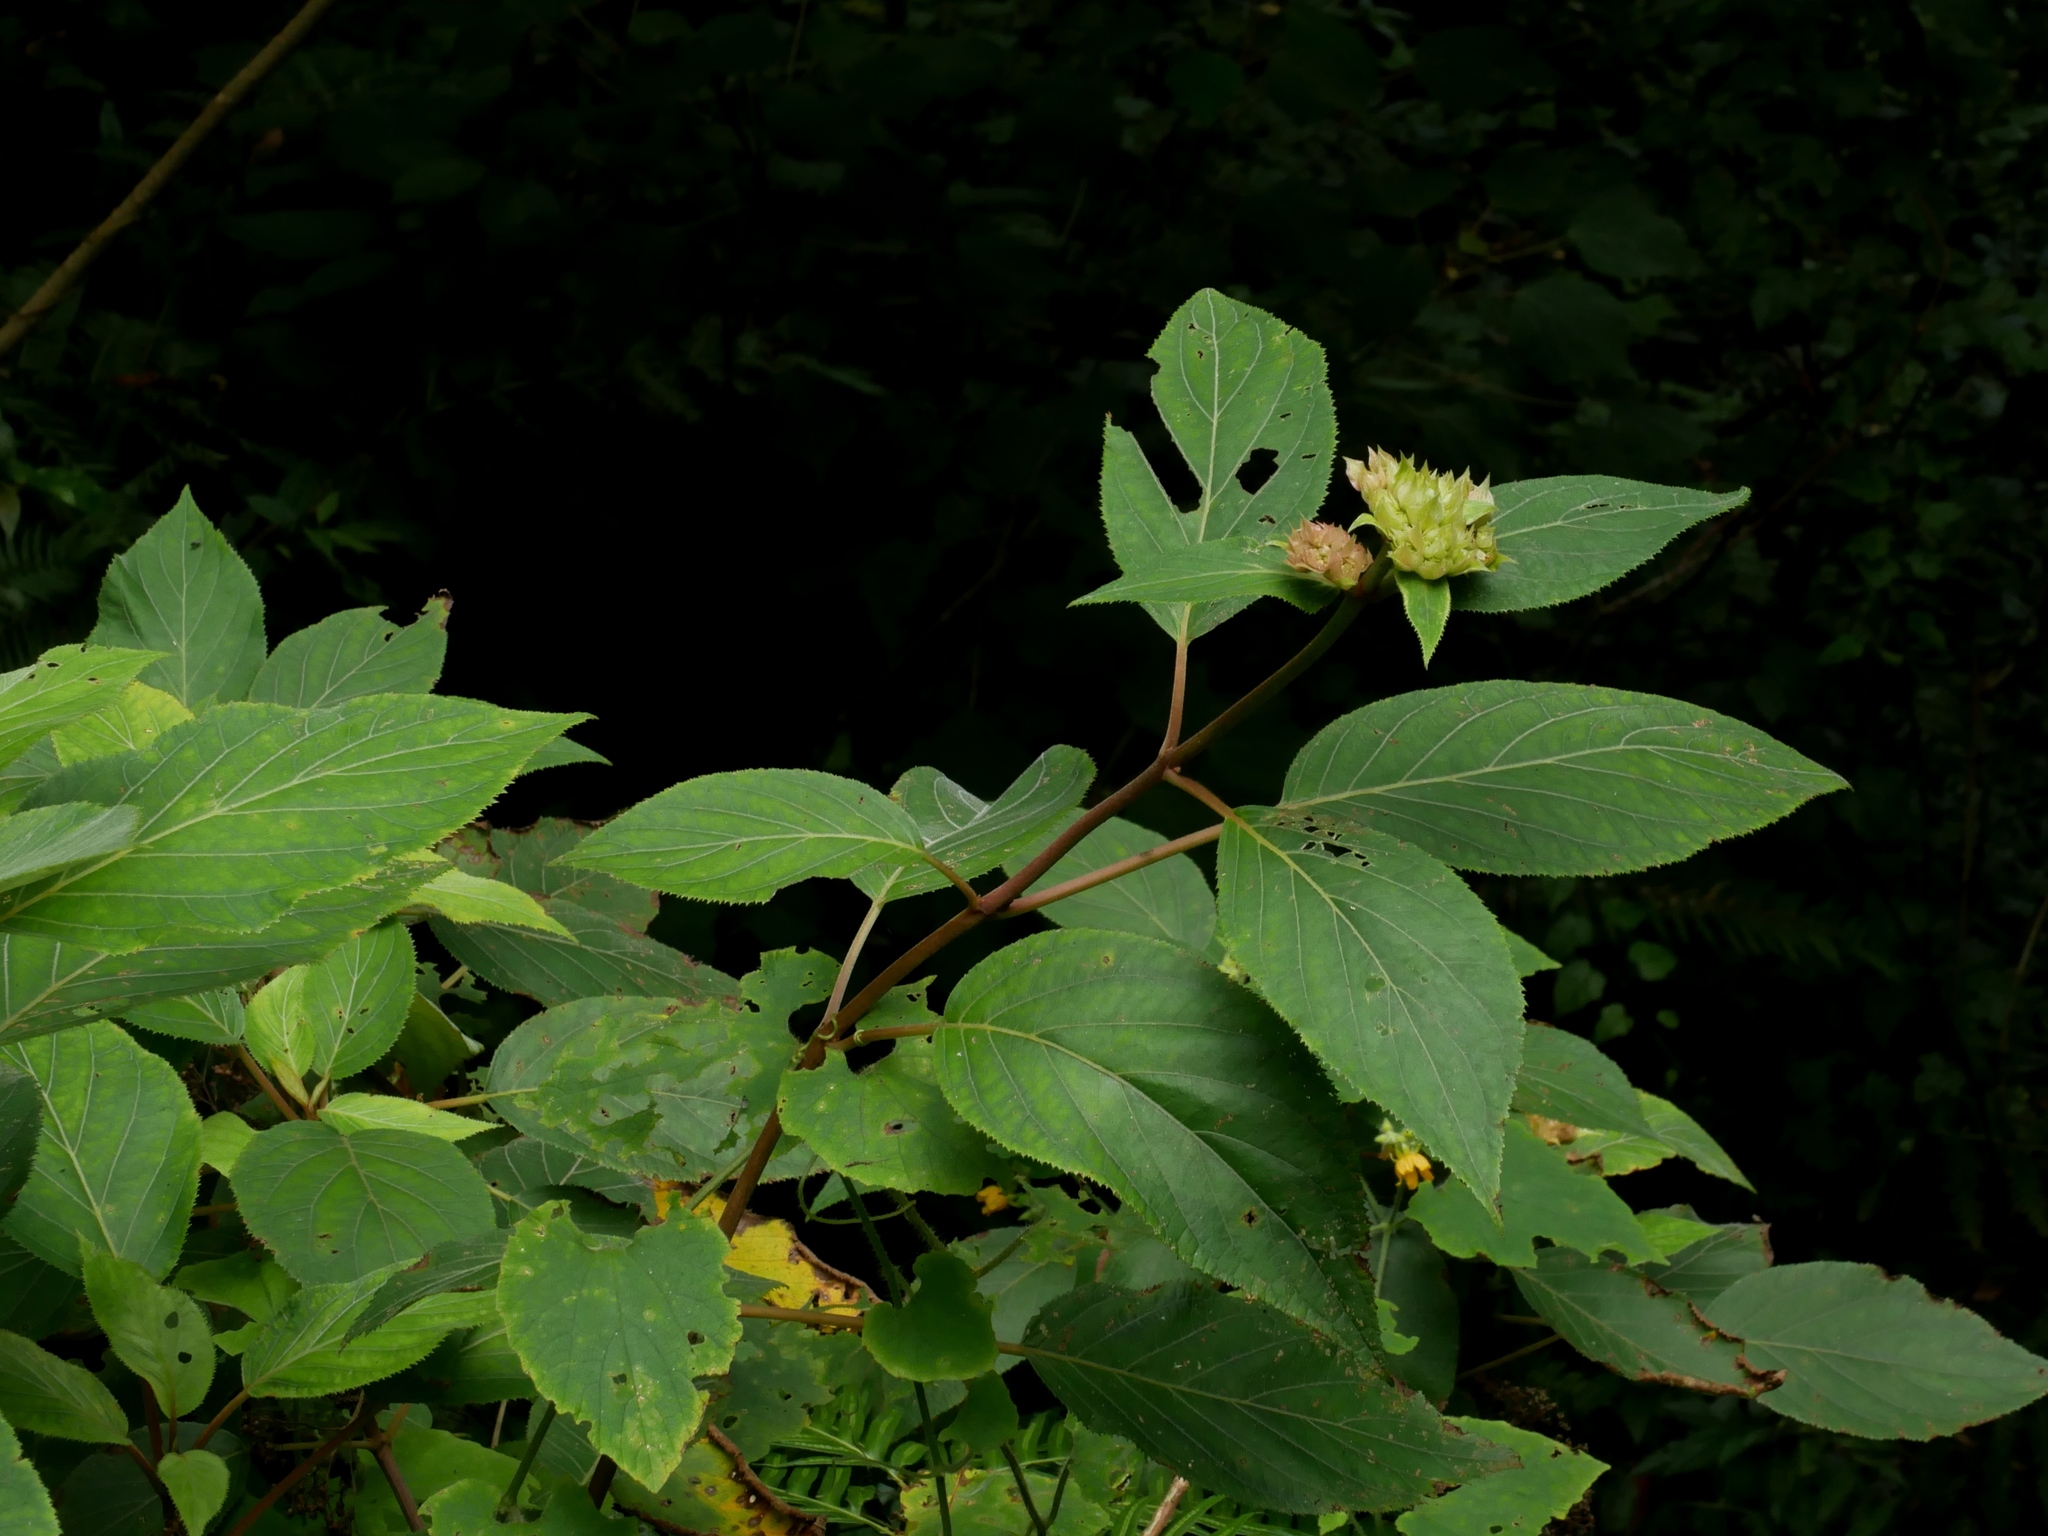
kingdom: Plantae
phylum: Tracheophyta
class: Magnoliopsida
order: Cornales
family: Hydrangeaceae
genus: Hydrangea
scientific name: Hydrangea aspera
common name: Rough-leaf hydrangea
